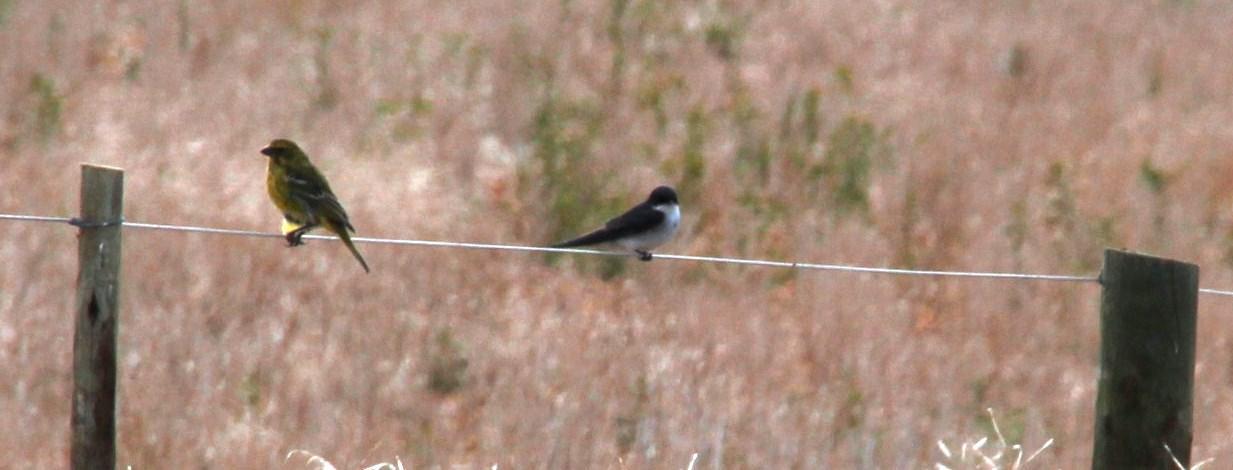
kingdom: Animalia
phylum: Chordata
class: Aves
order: Passeriformes
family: Fringillidae
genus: Crithagra
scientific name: Crithagra flaviventris
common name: Yellow canary
